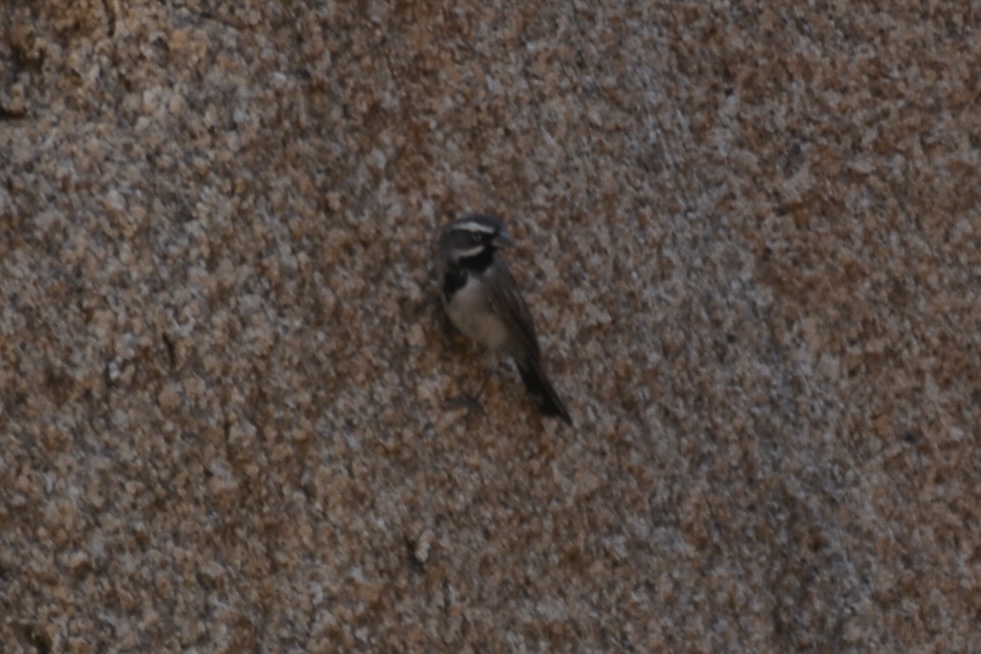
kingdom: Animalia
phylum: Chordata
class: Aves
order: Passeriformes
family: Passerellidae
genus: Amphispiza
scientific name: Amphispiza bilineata
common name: Black-throated sparrow
